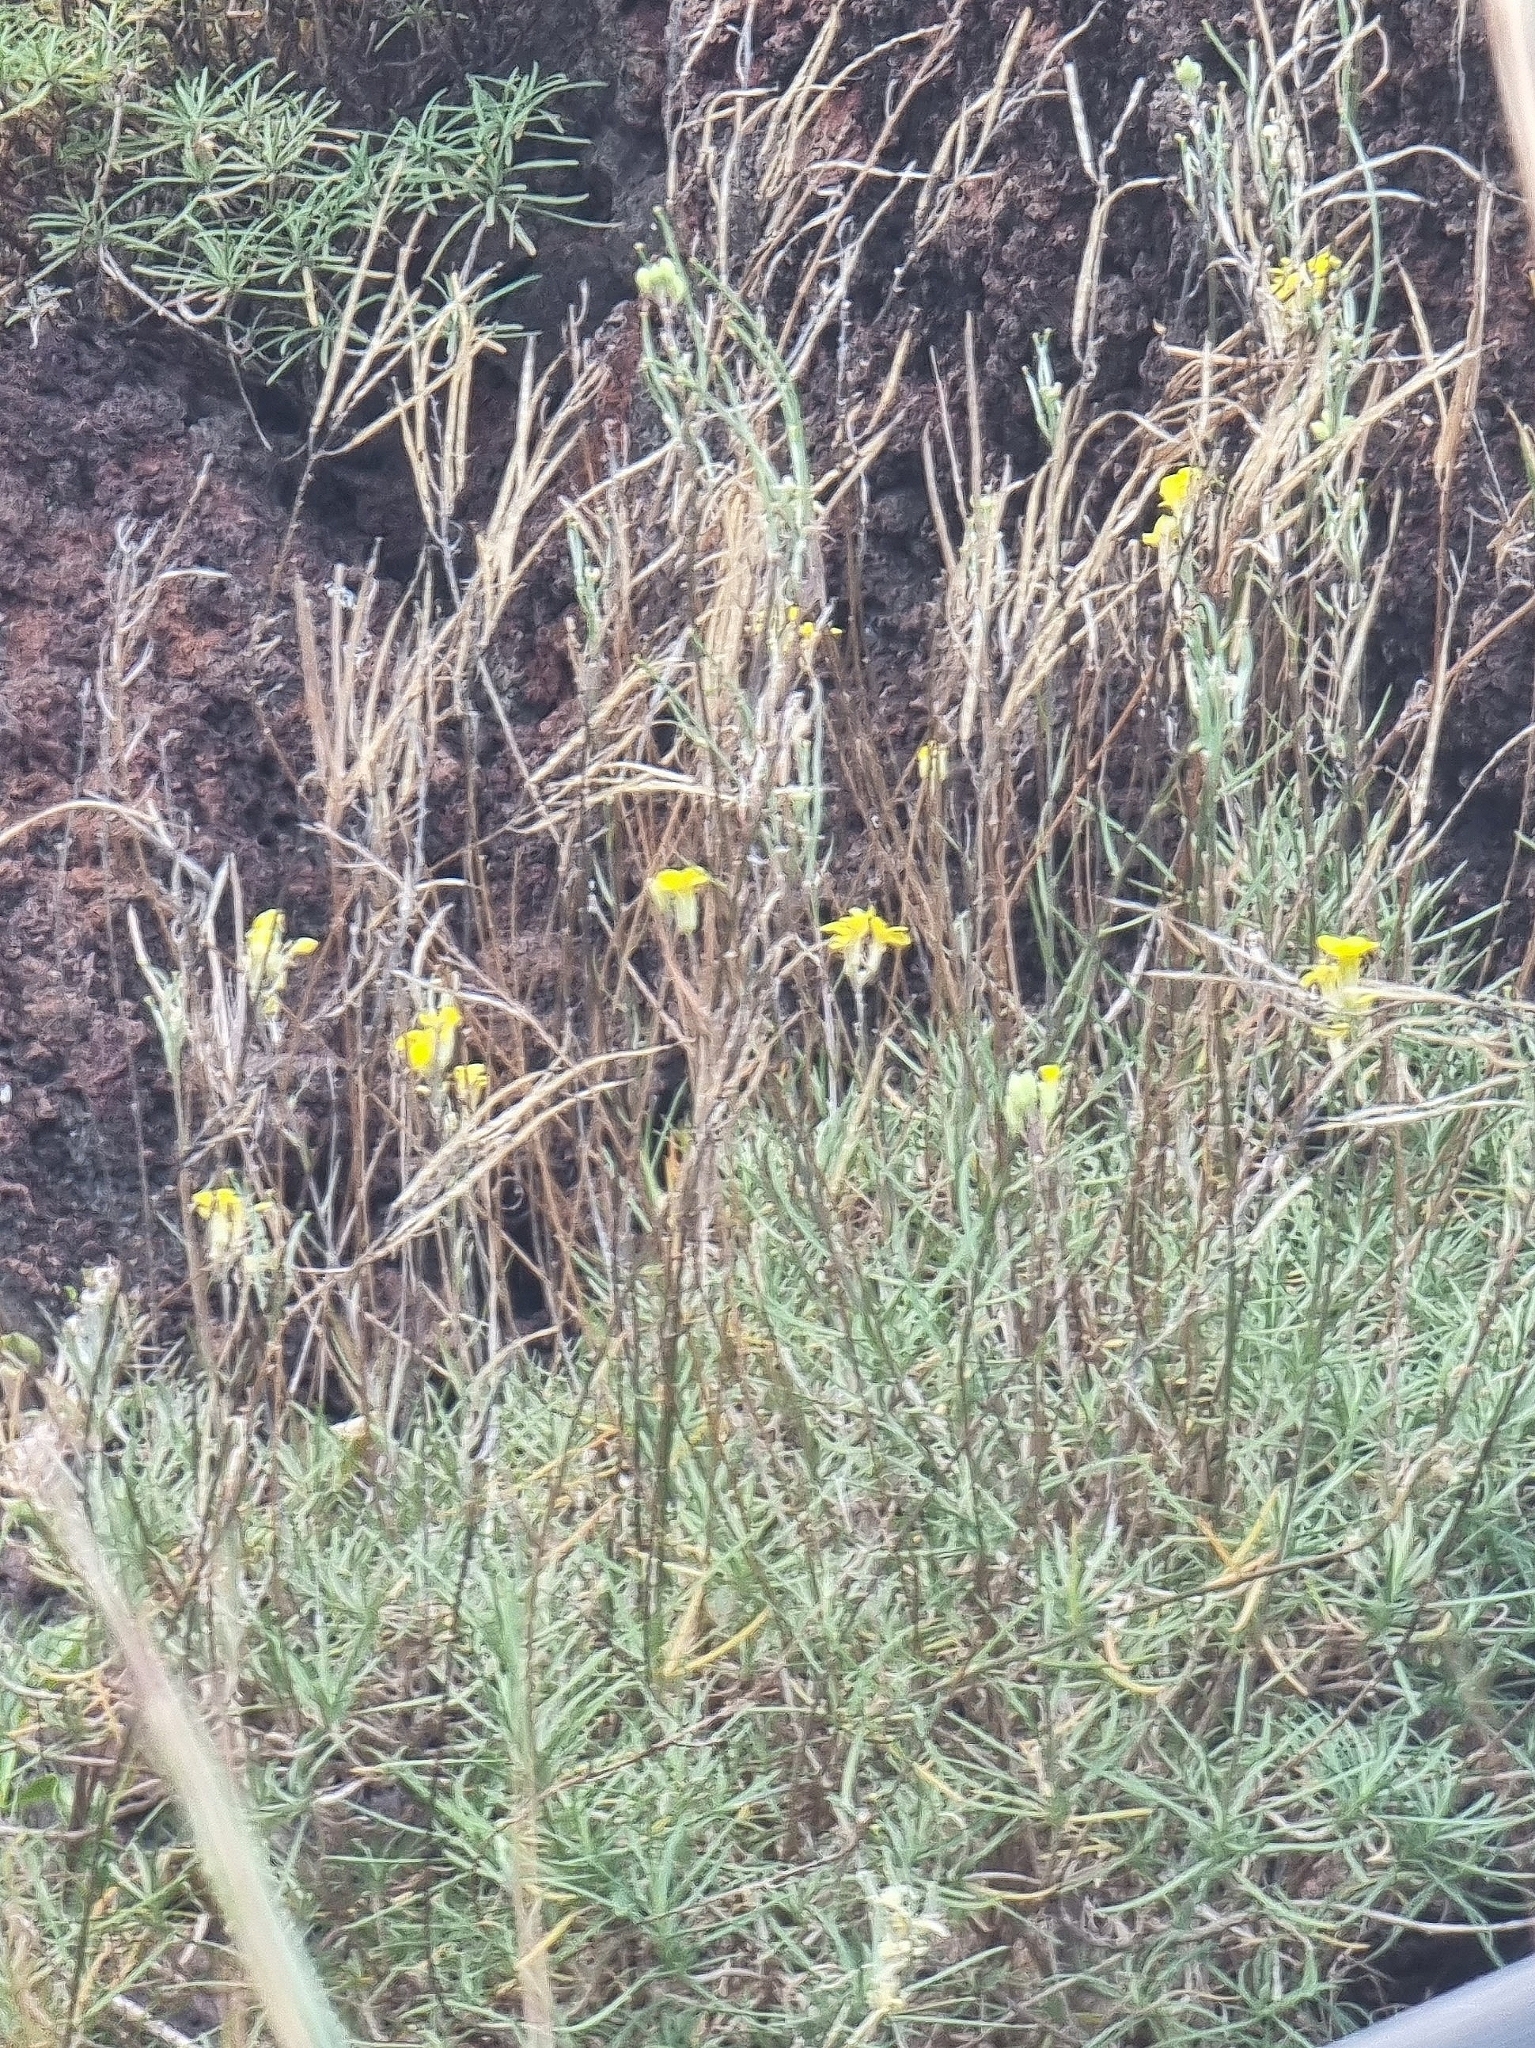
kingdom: Plantae
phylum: Tracheophyta
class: Magnoliopsida
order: Brassicales
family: Brassicaceae
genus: Erysimum
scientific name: Erysimum maderense
